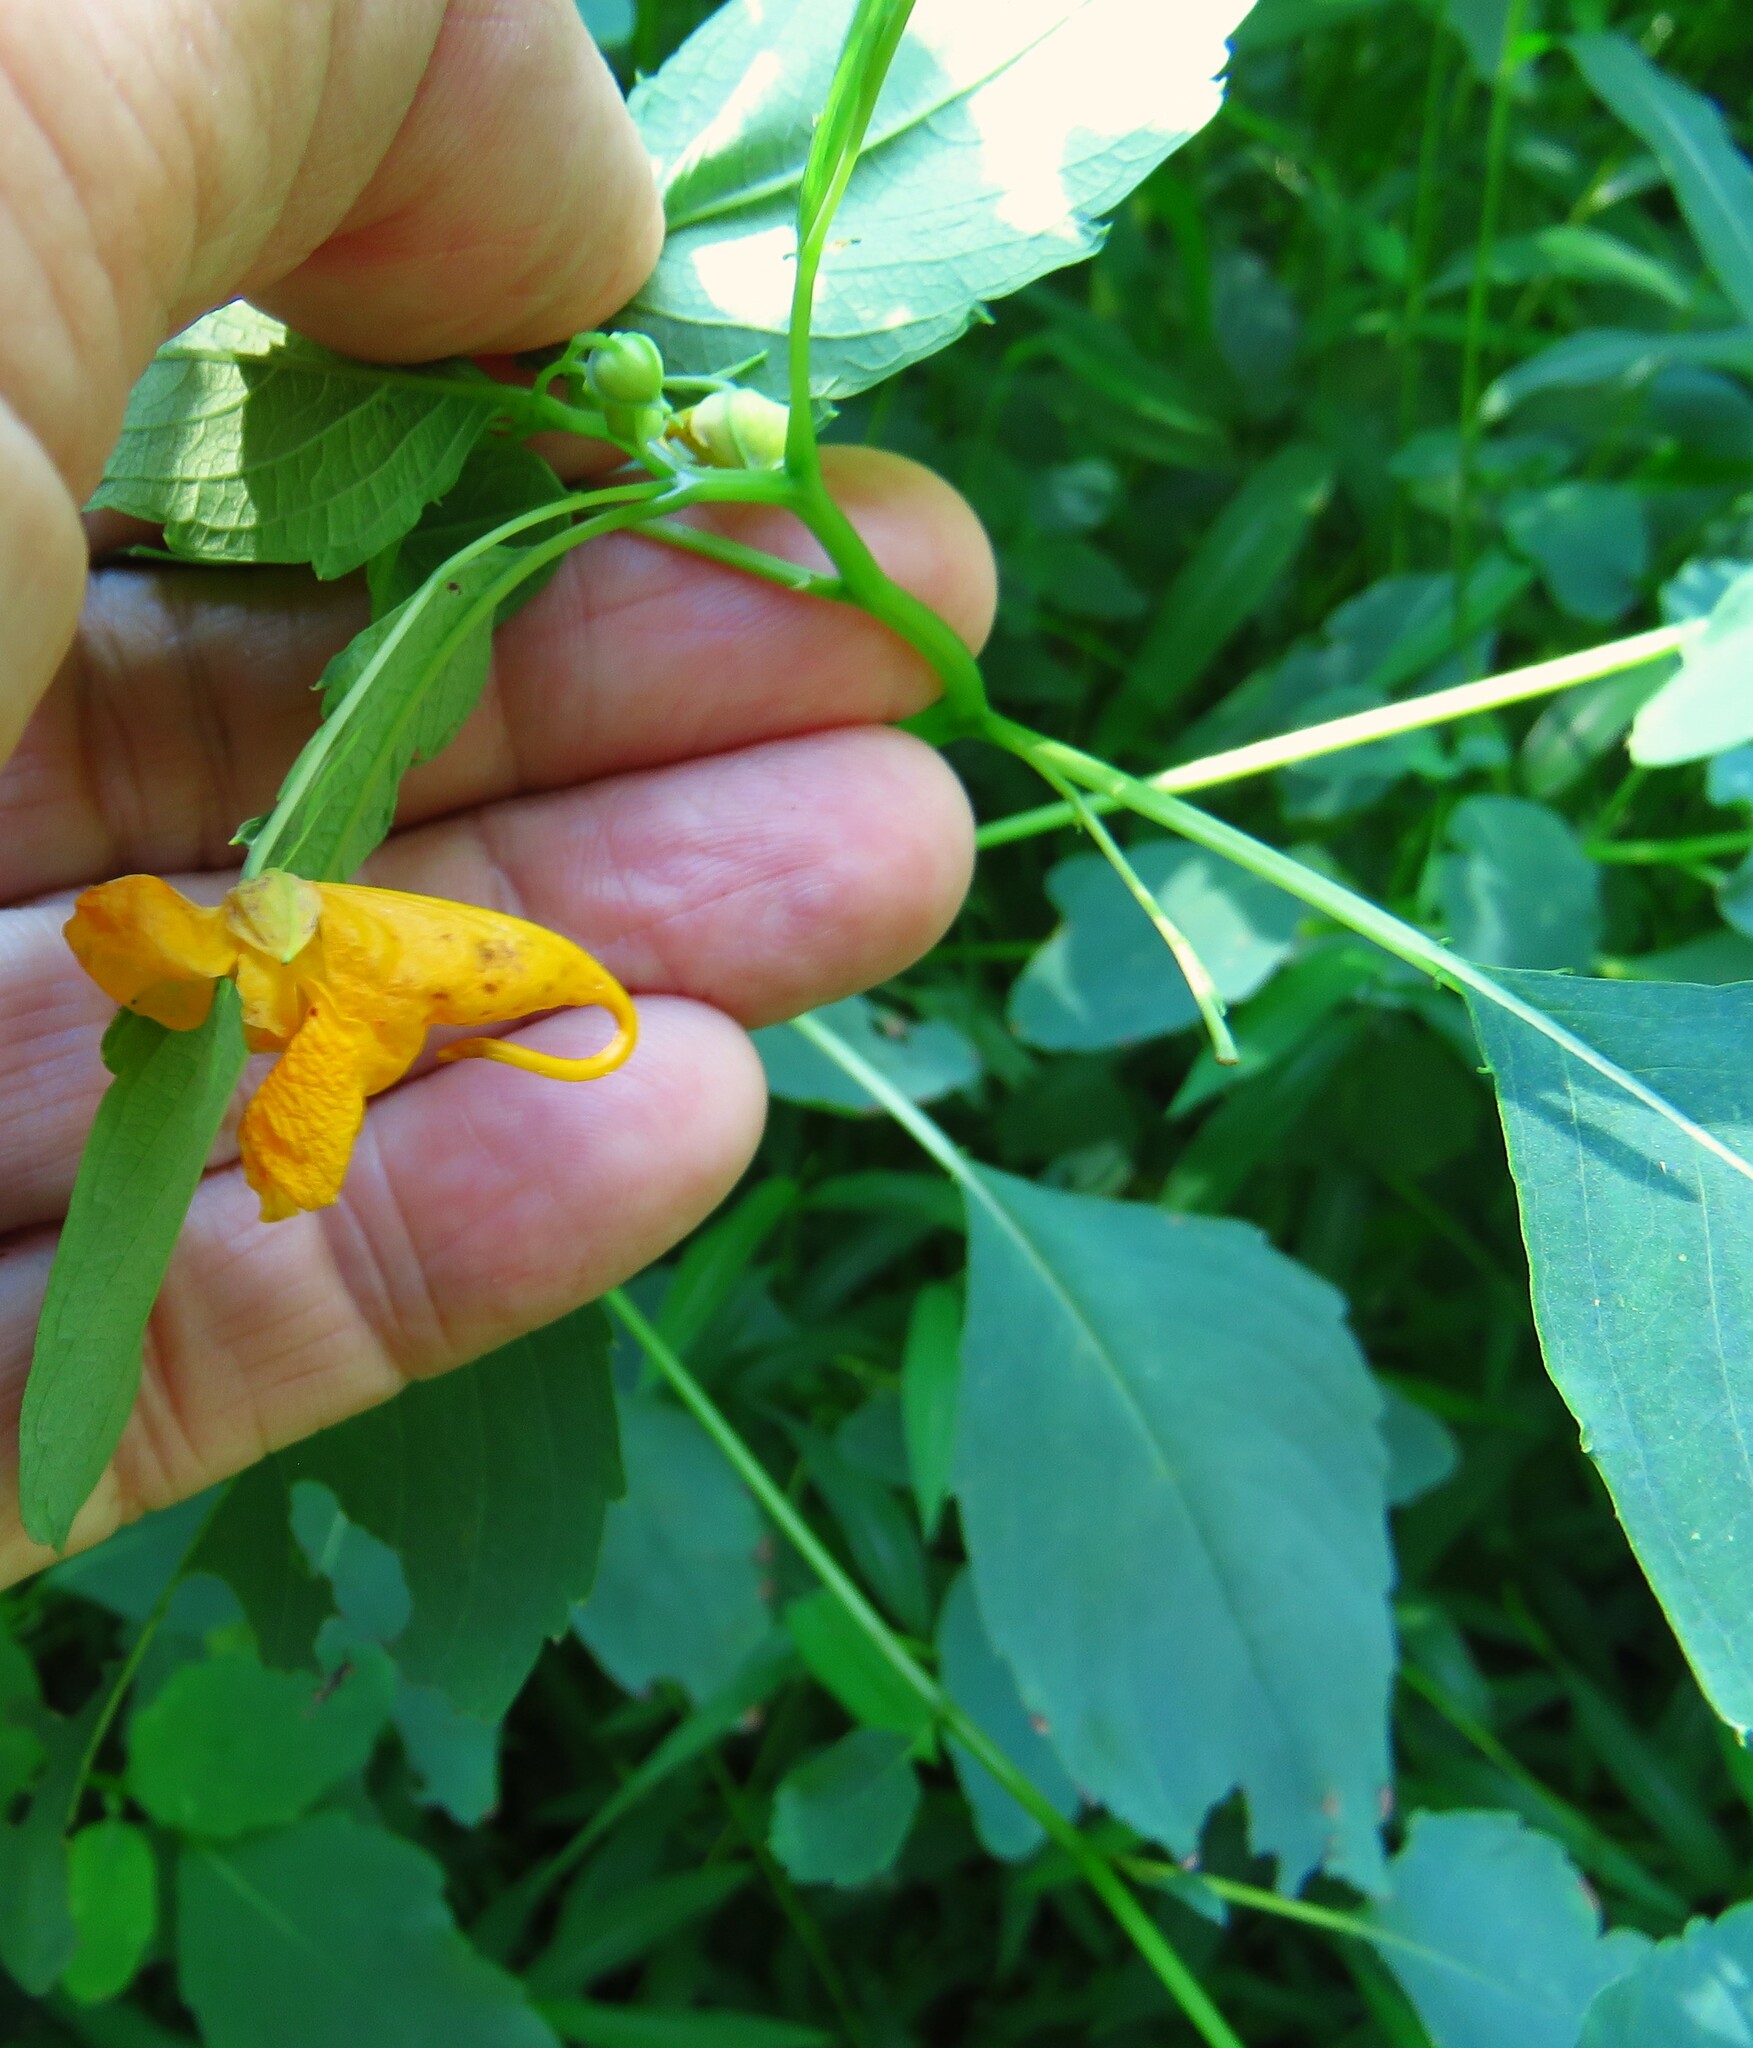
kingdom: Plantae
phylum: Tracheophyta
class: Magnoliopsida
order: Ericales
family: Balsaminaceae
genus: Impatiens
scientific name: Impatiens capensis
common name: Orange balsam
